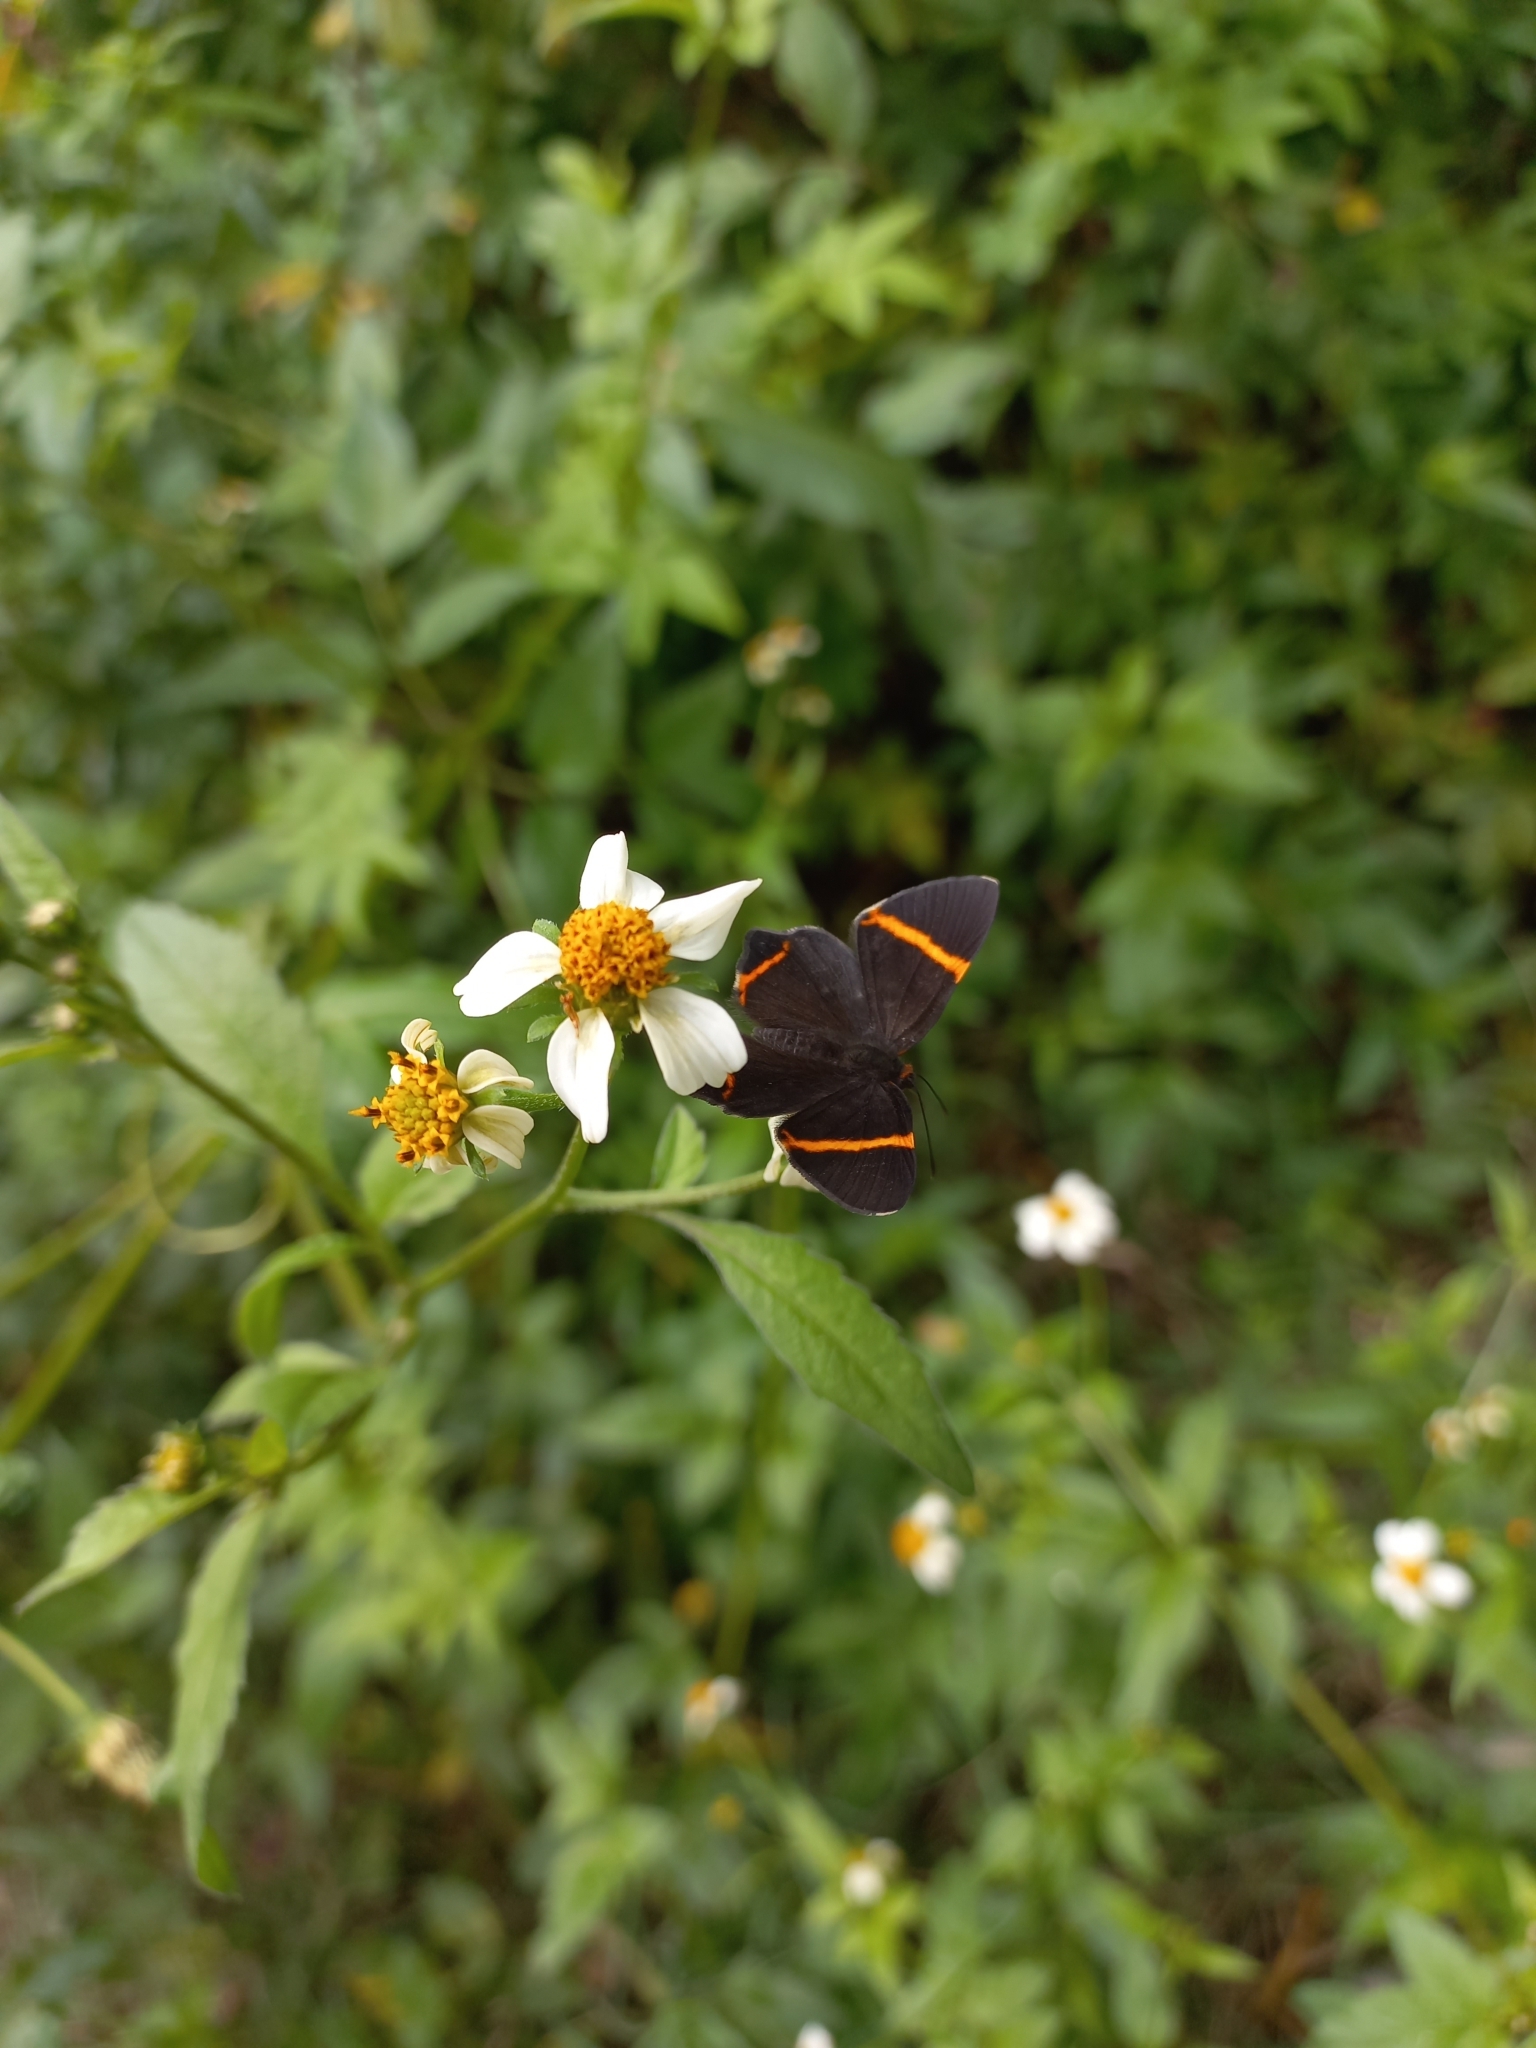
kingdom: Animalia
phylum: Arthropoda
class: Insecta
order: Lepidoptera
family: Riodinidae
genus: Riodina
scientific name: Riodina lysippoides
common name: Little dancer metalmark
